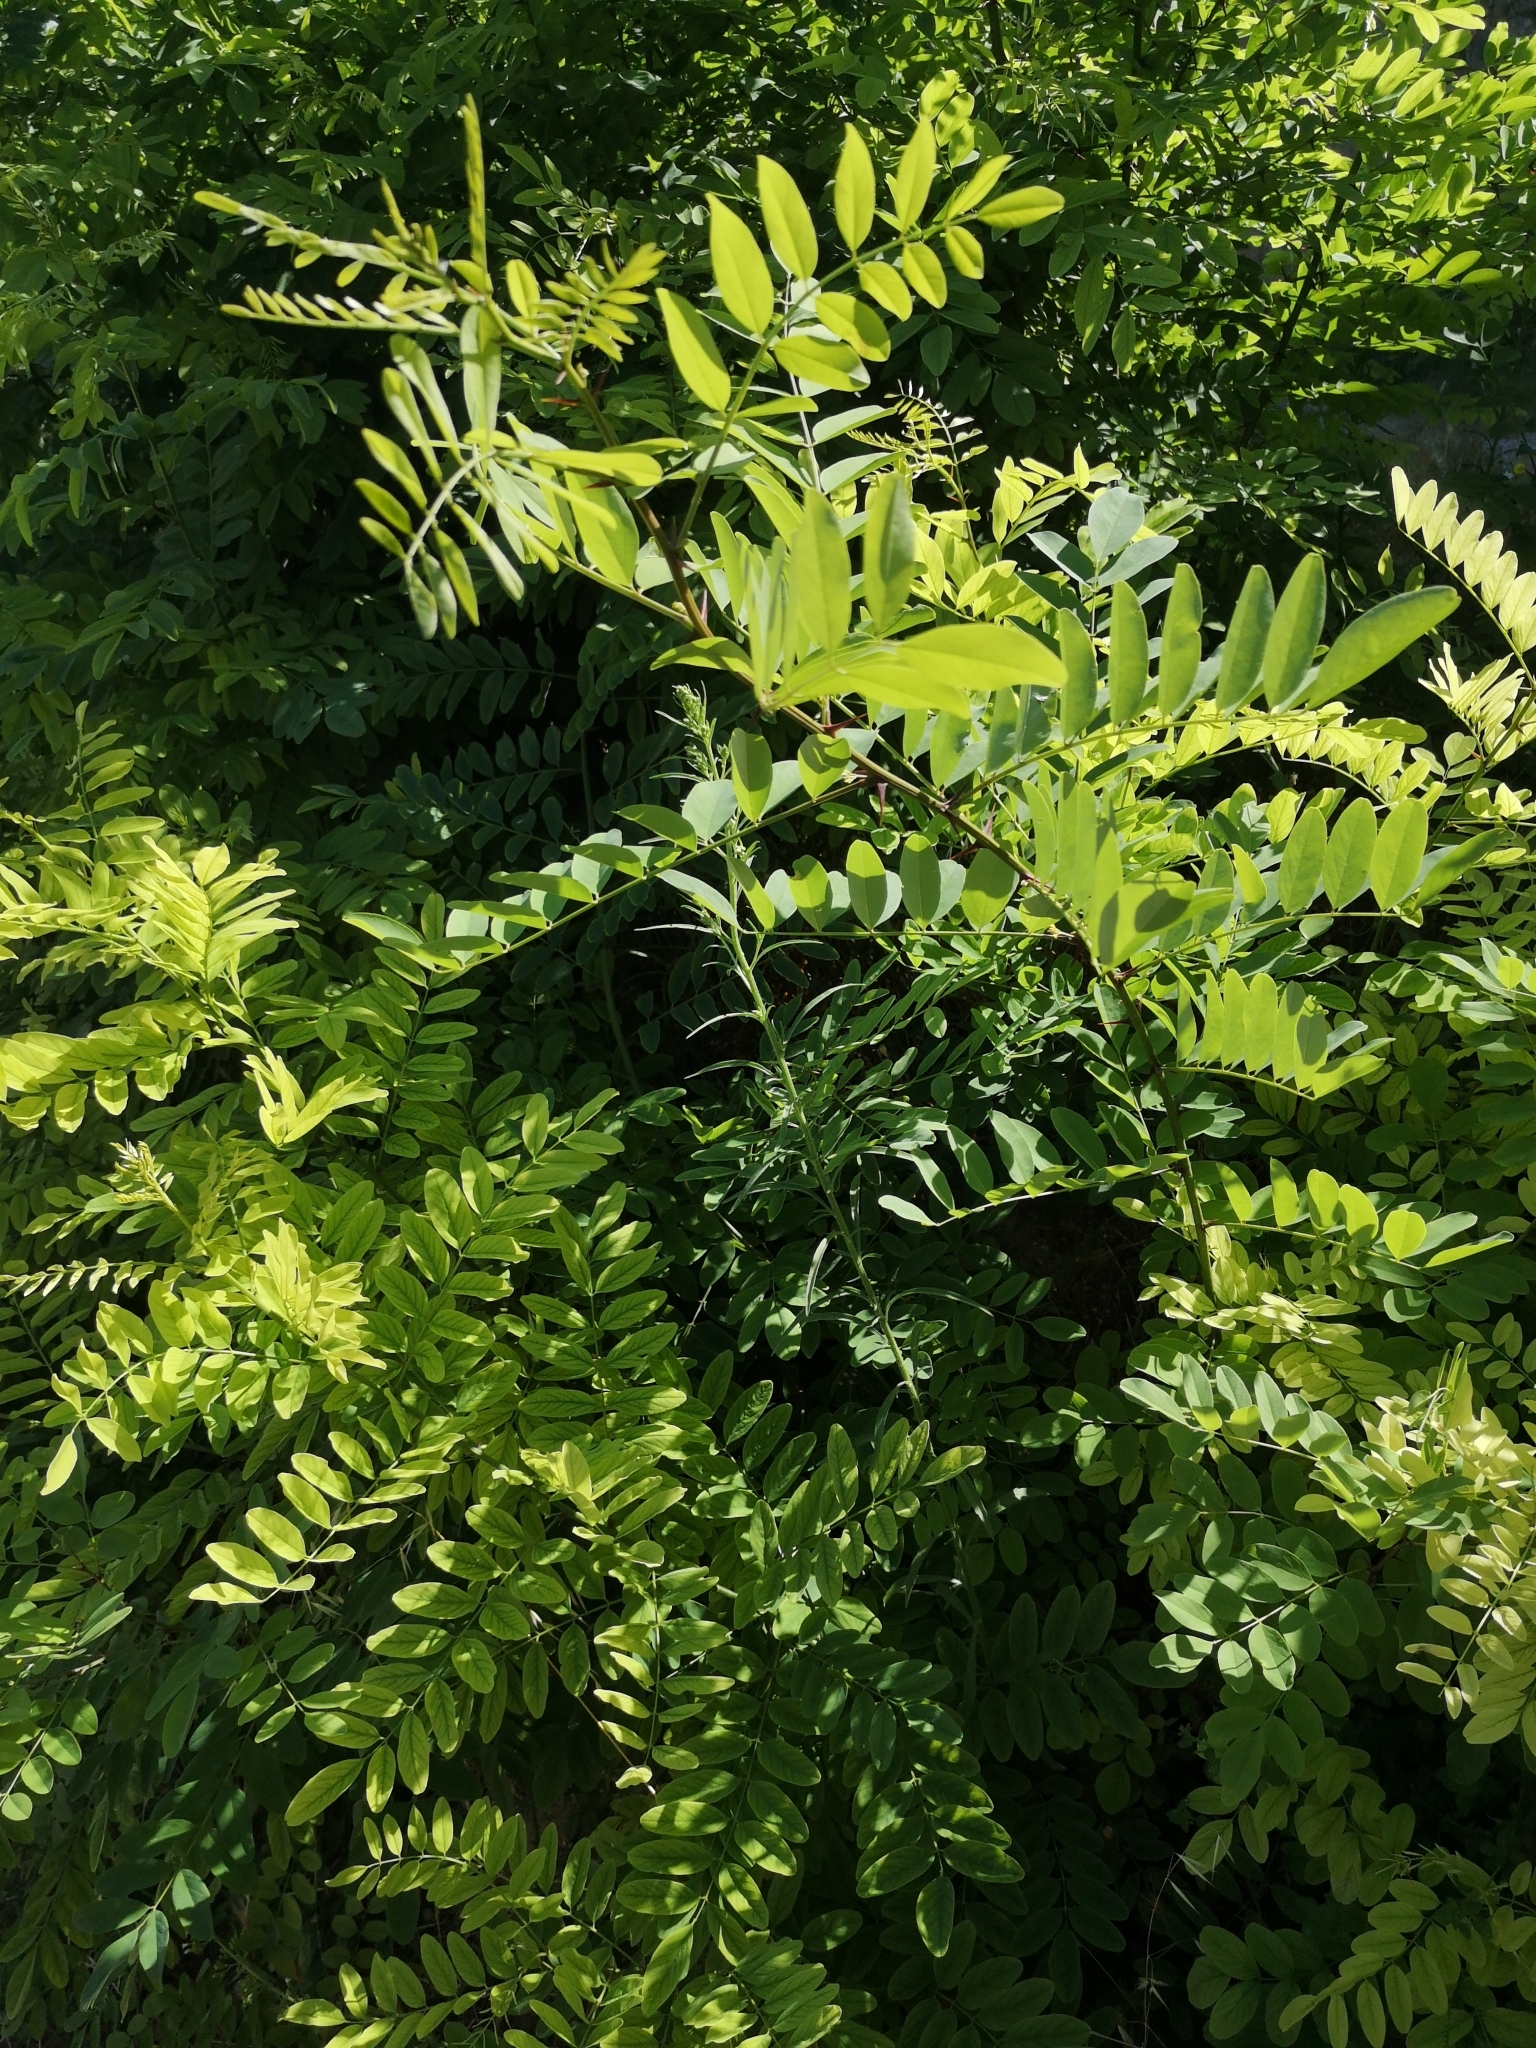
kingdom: Plantae
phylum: Tracheophyta
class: Magnoliopsida
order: Fabales
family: Fabaceae
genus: Robinia
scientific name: Robinia pseudoacacia
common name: Black locust
